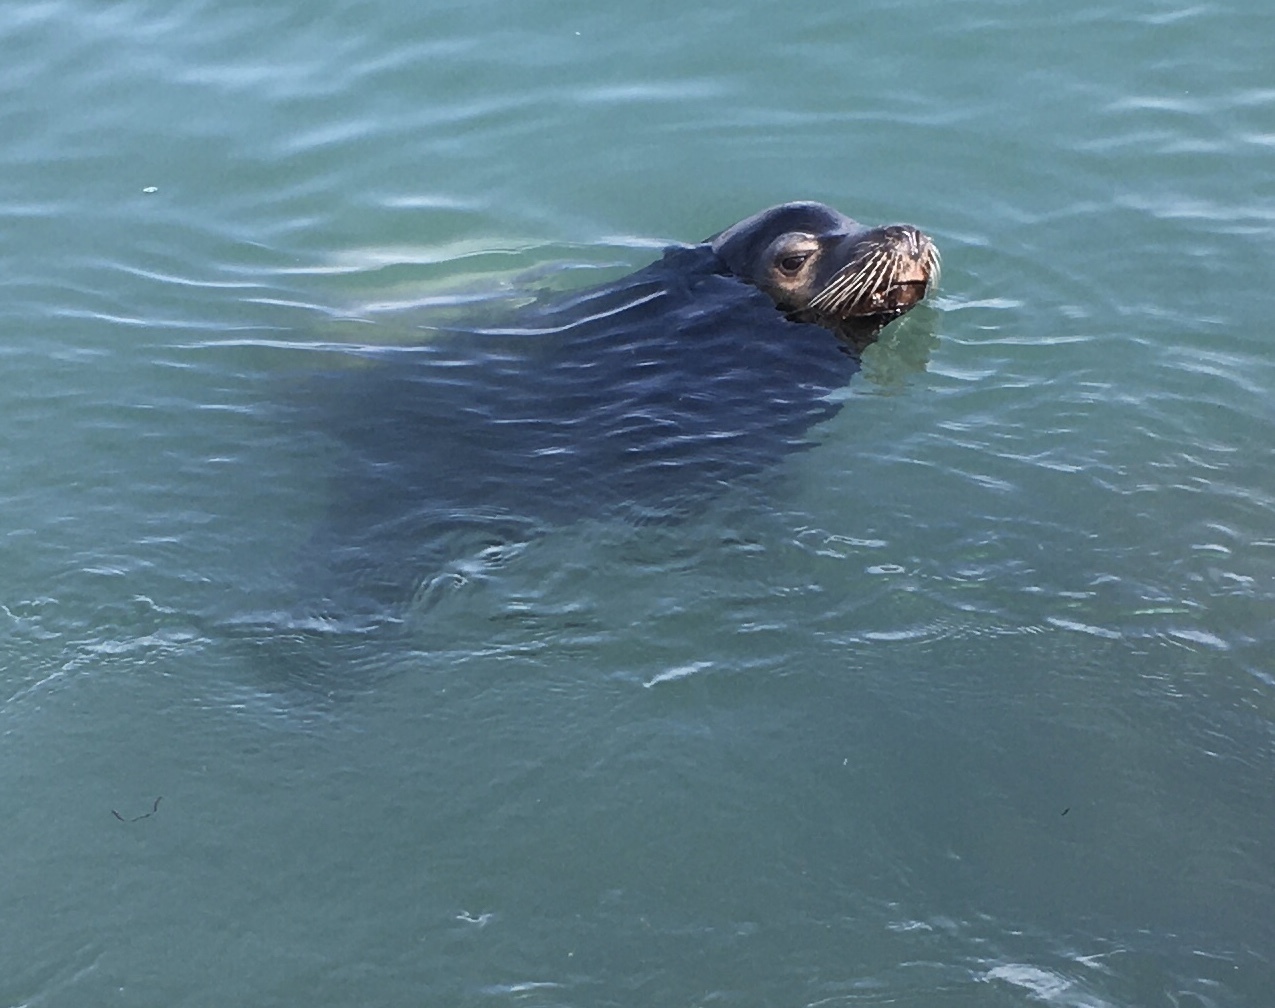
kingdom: Animalia
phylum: Chordata
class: Mammalia
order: Carnivora
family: Otariidae
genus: Zalophus
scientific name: Zalophus californianus
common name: California sea lion
